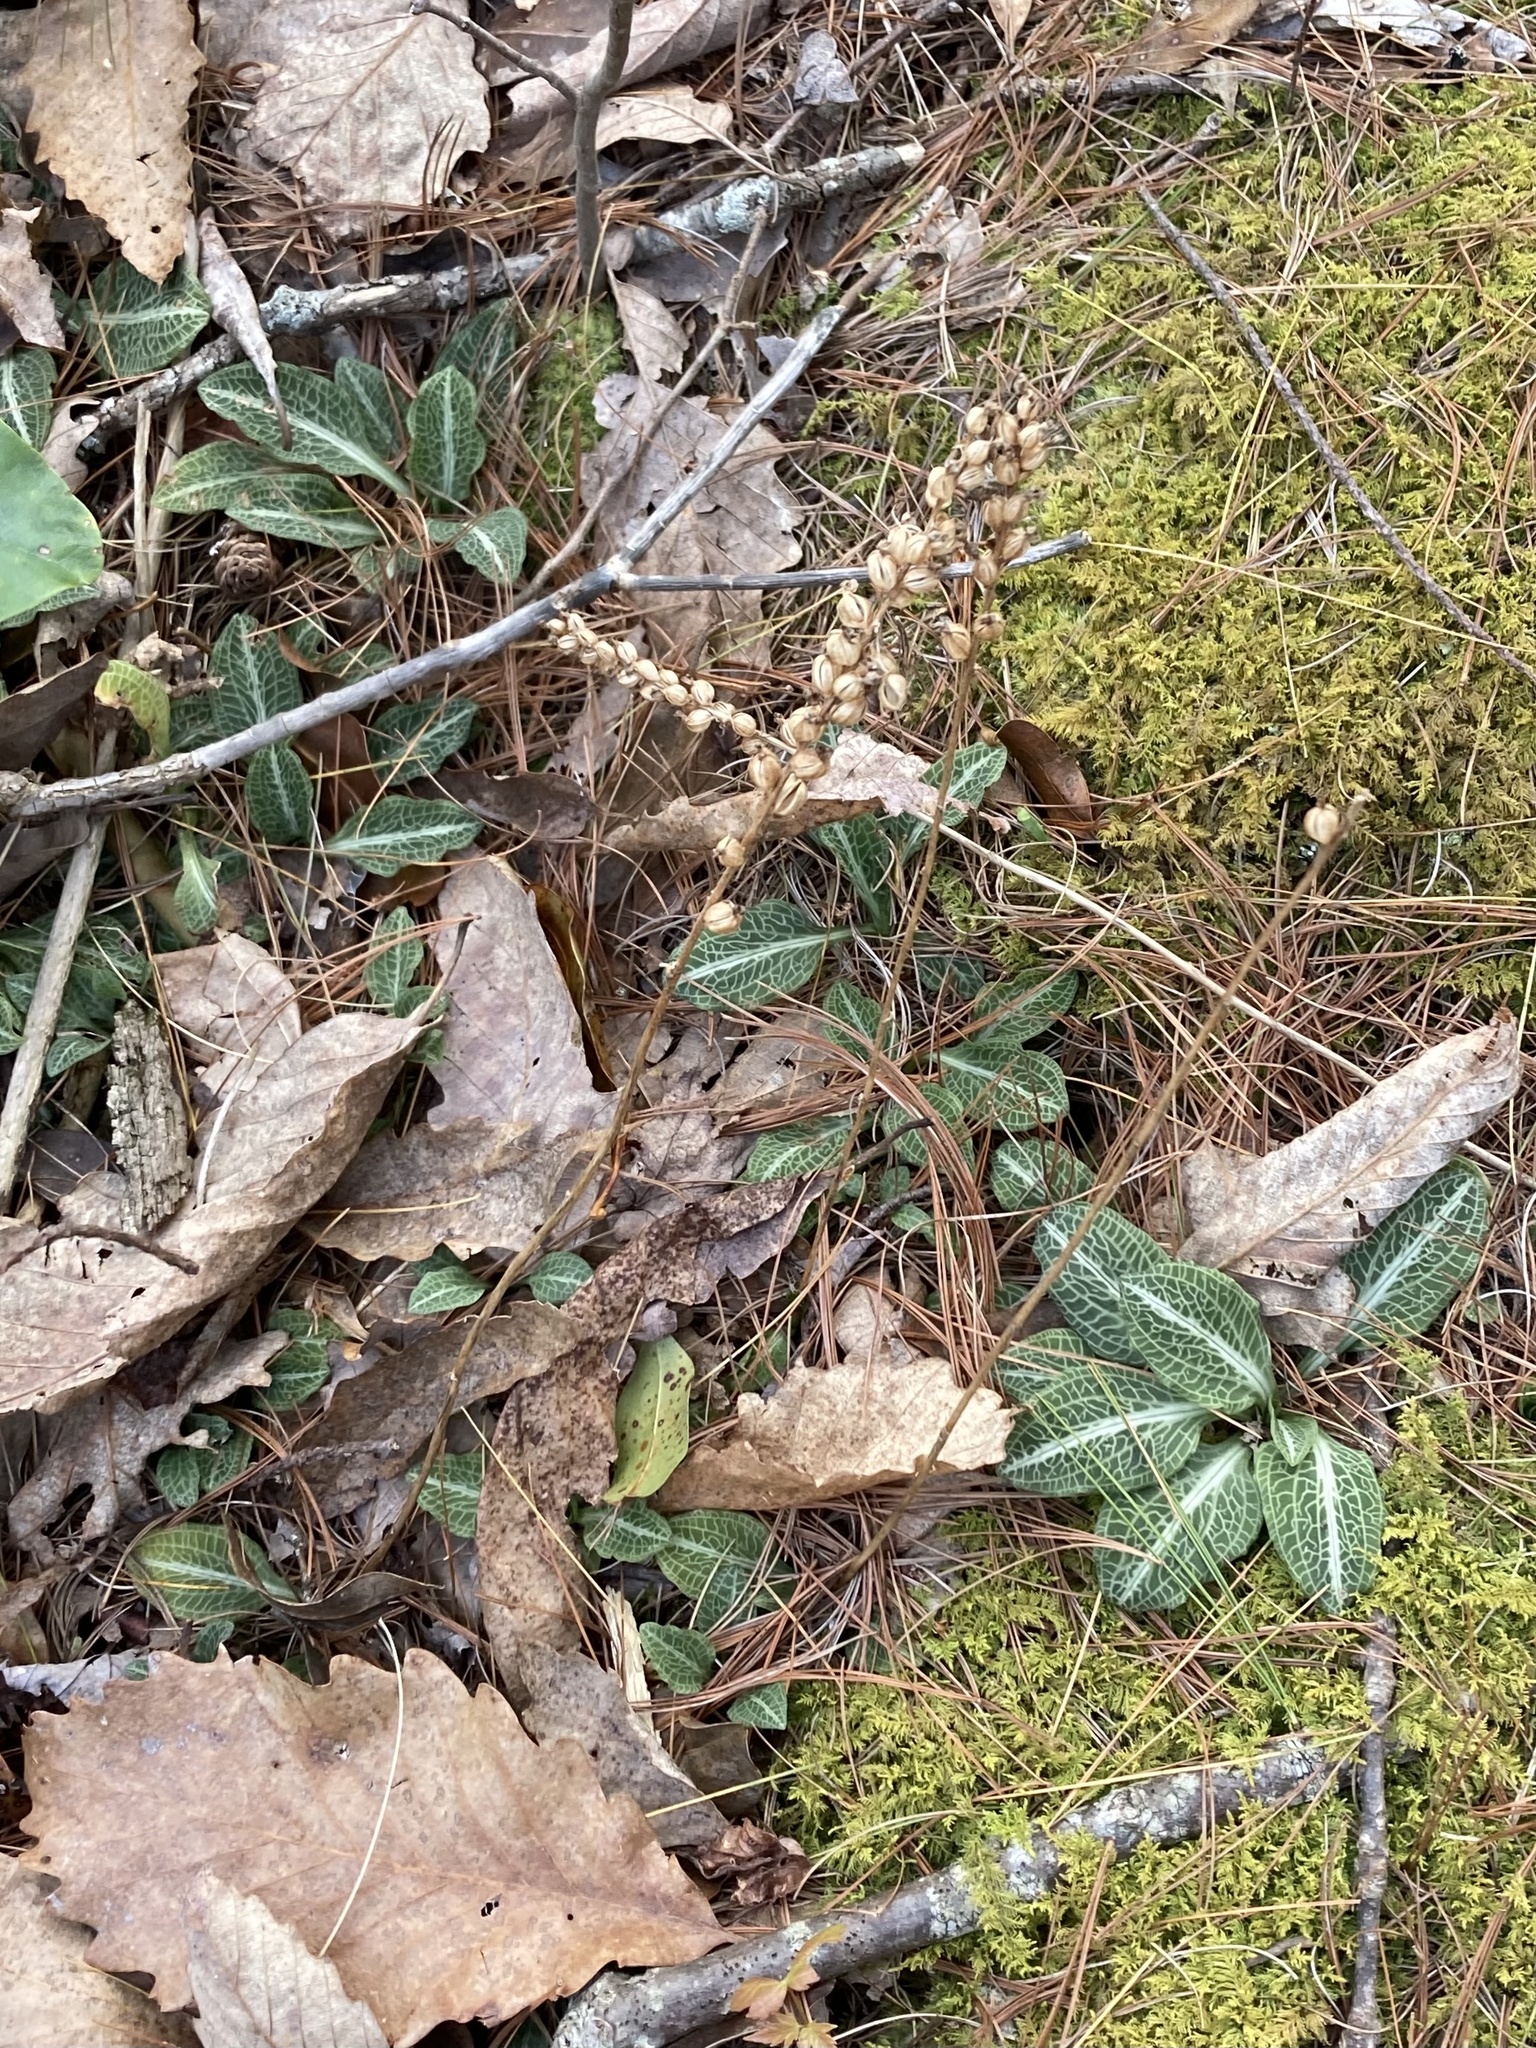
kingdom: Plantae
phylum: Tracheophyta
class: Liliopsida
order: Asparagales
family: Orchidaceae
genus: Goodyera
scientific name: Goodyera pubescens
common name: Downy rattlesnake-plantain
